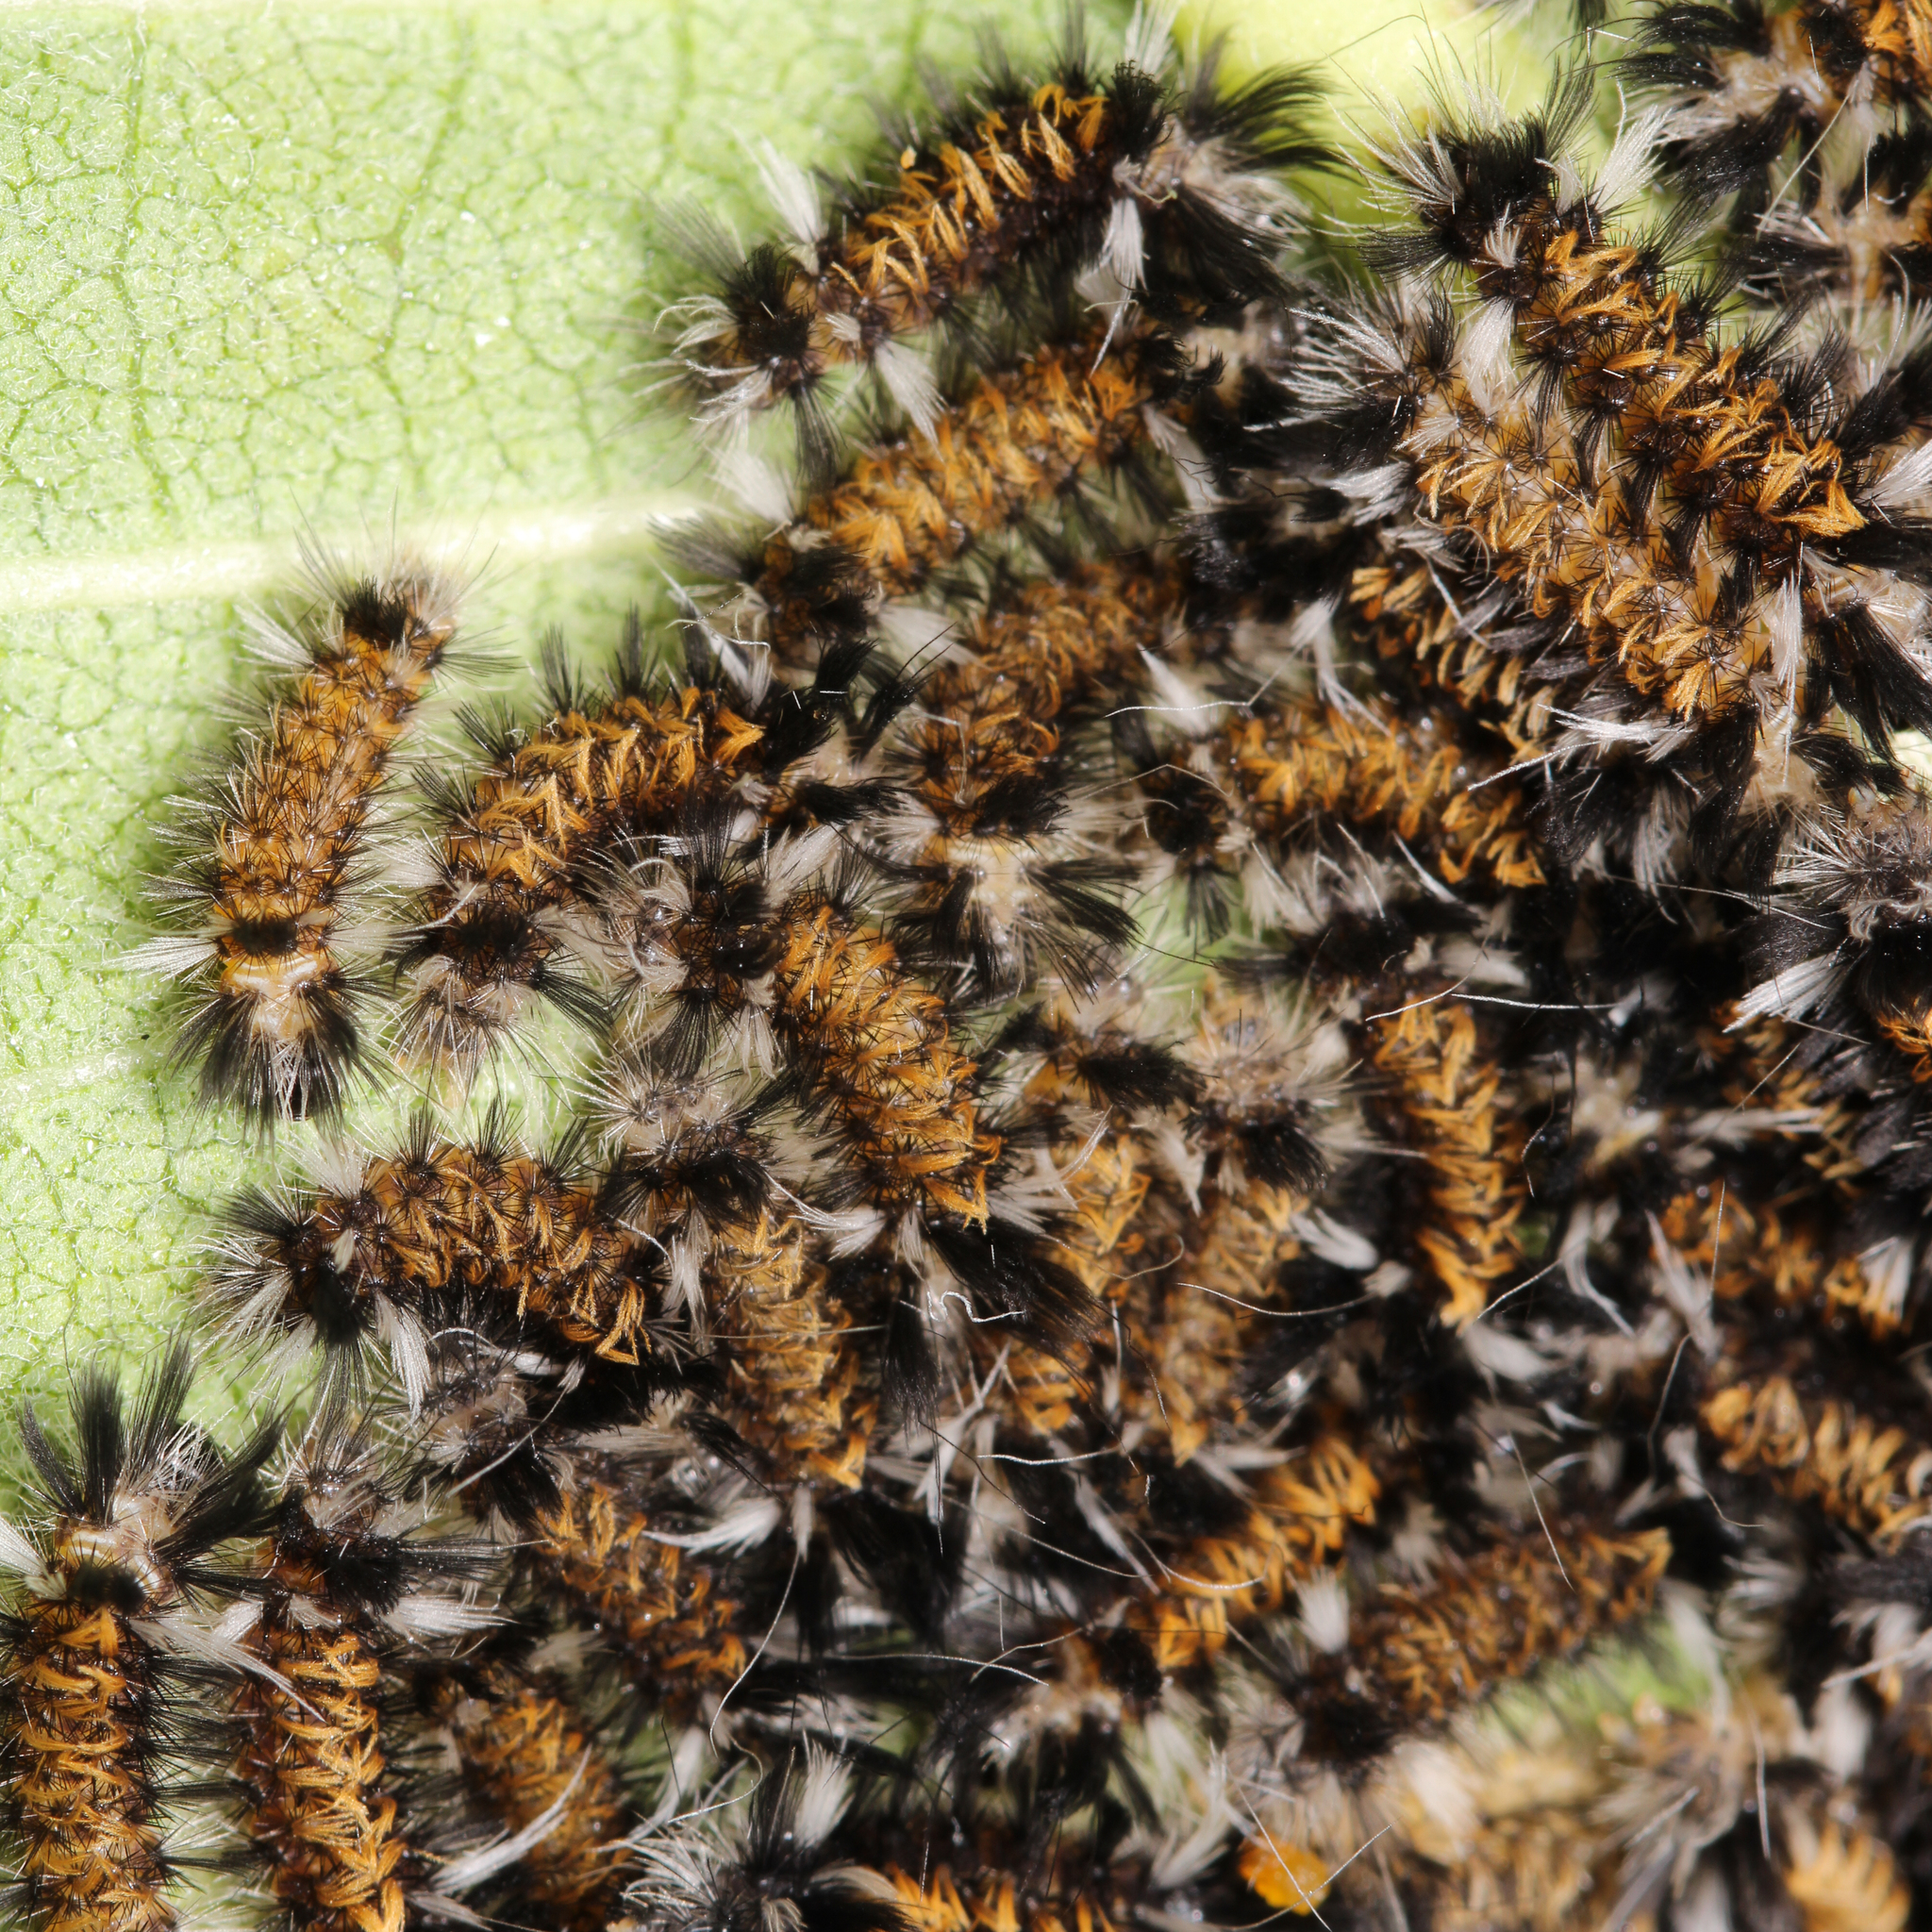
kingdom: Animalia
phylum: Arthropoda
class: Insecta
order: Lepidoptera
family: Erebidae
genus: Euchaetes
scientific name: Euchaetes egle
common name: Milkweed tussock moth
